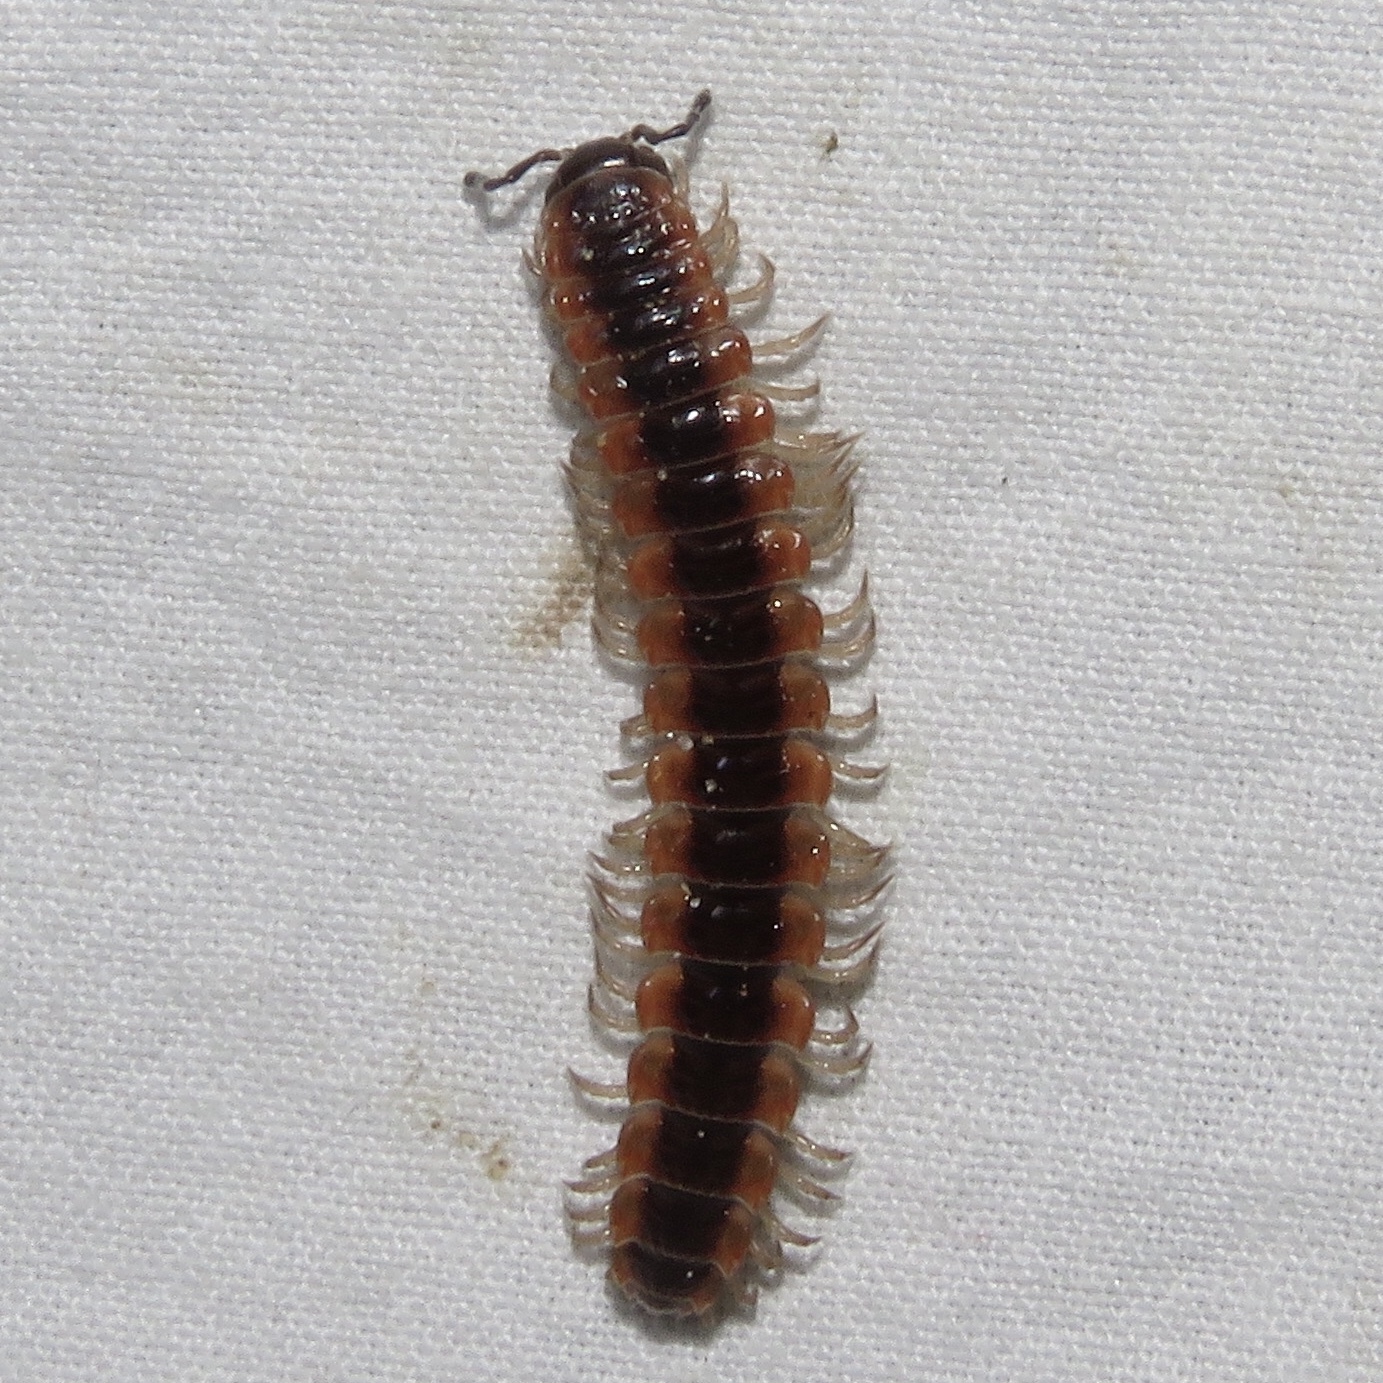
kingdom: Animalia
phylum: Arthropoda
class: Diplopoda
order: Polydesmida
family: Polydesmidae
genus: Pseudopolydesmus
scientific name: Pseudopolydesmus canadensis
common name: Canadian flat-back millipede
